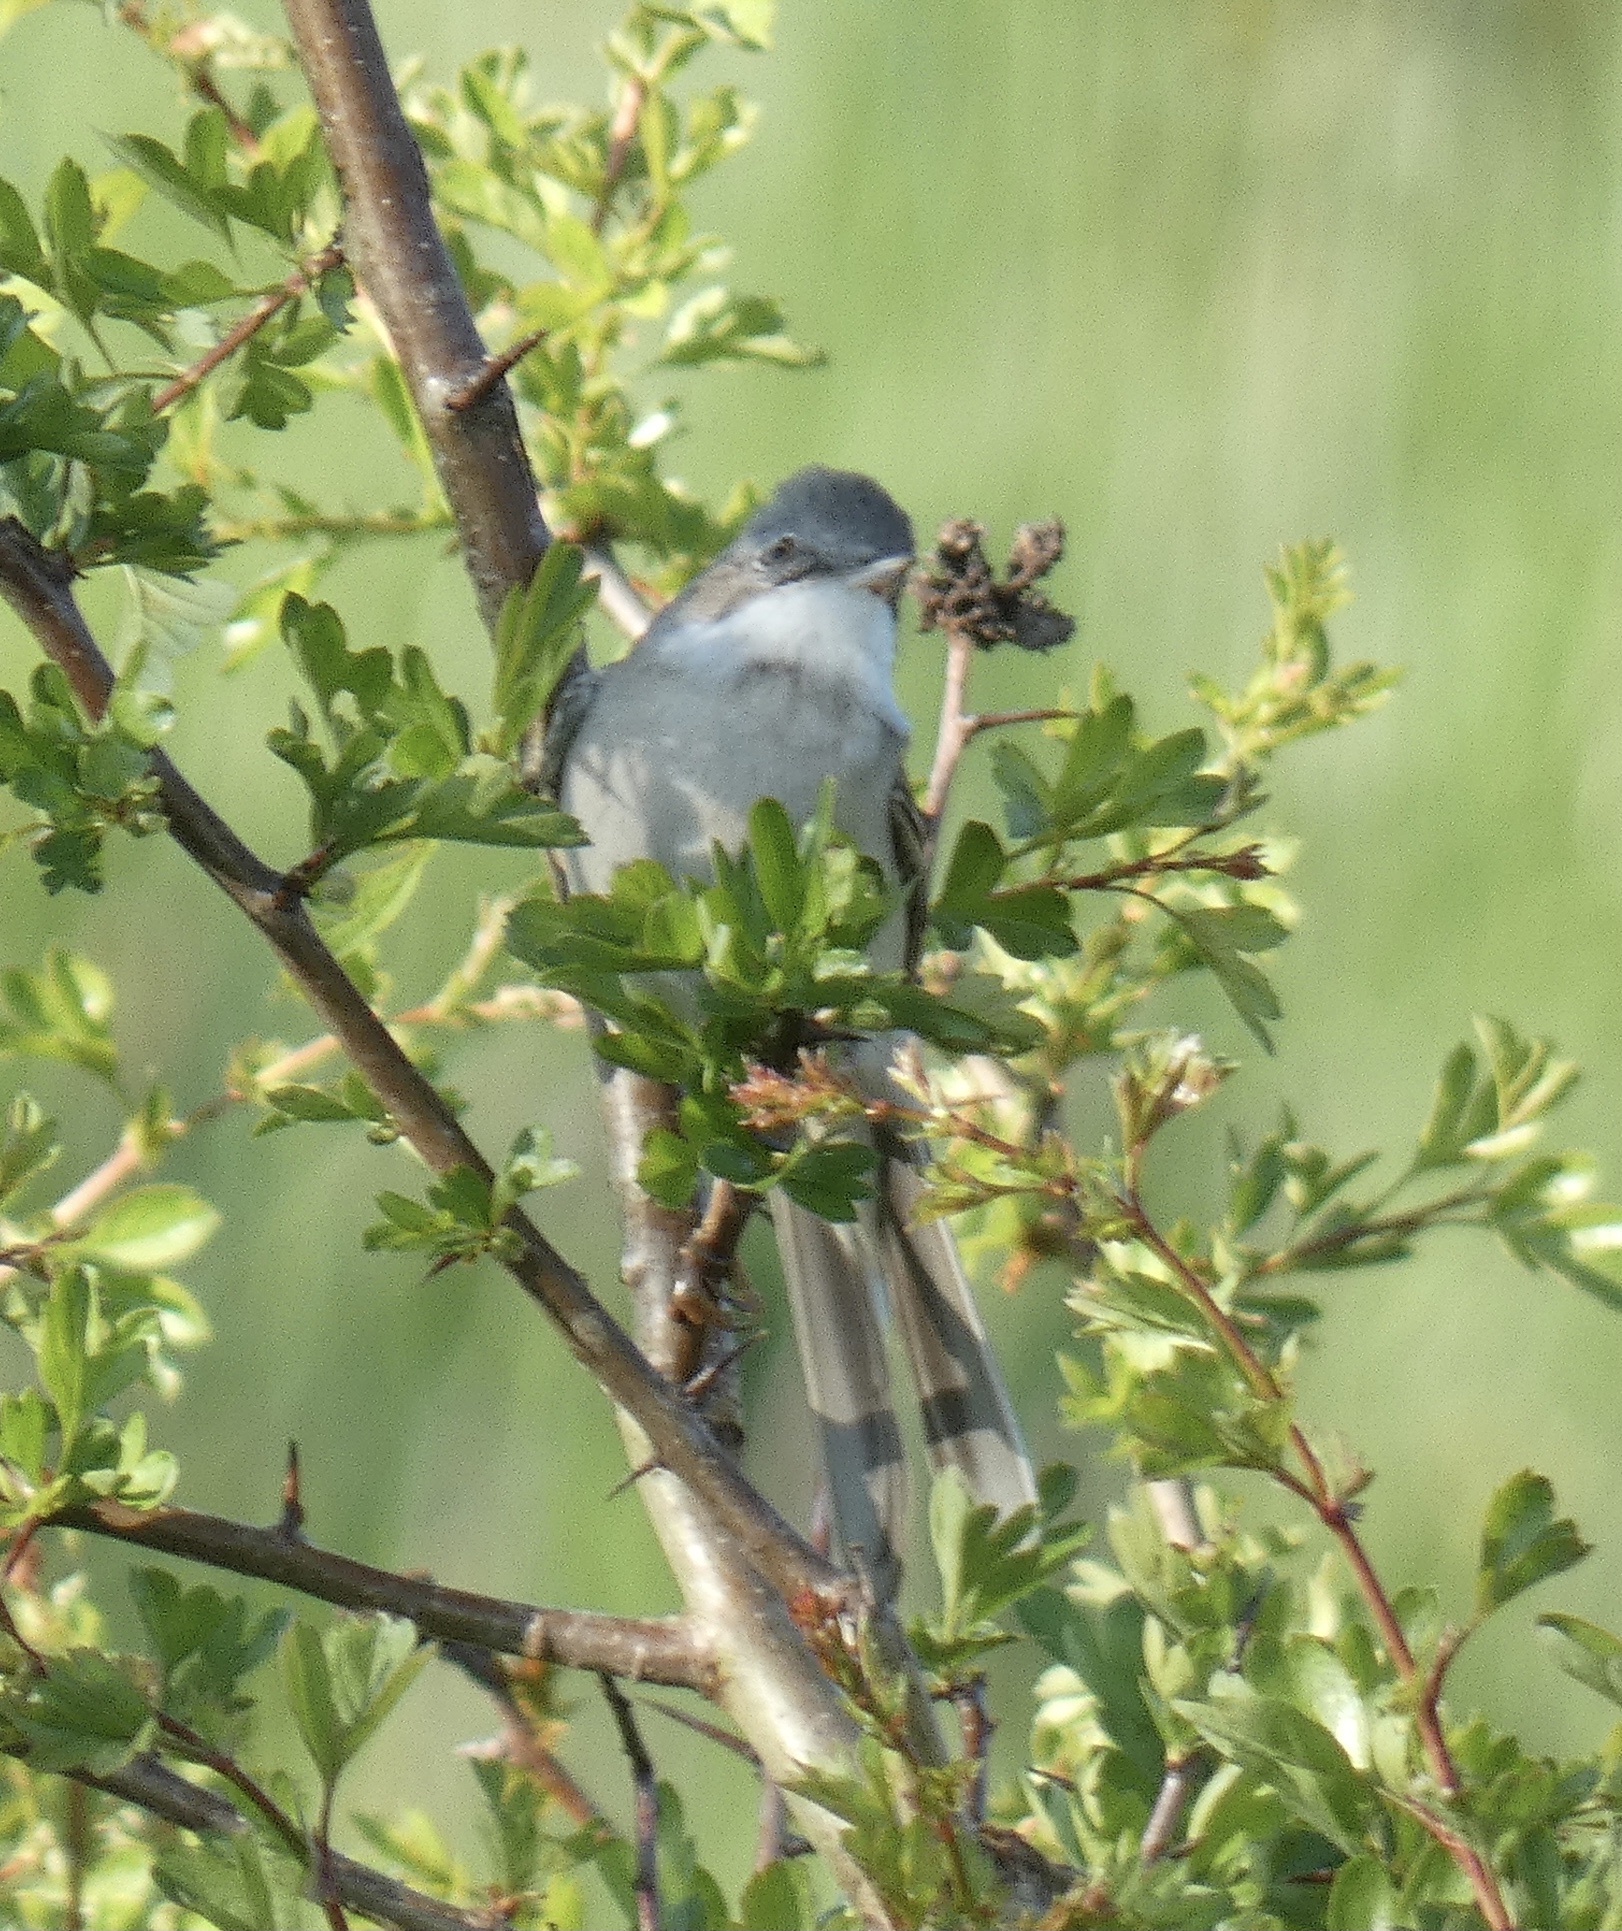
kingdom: Animalia
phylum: Chordata
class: Aves
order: Passeriformes
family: Sylviidae
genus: Sylvia
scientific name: Sylvia communis
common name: Common whitethroat
